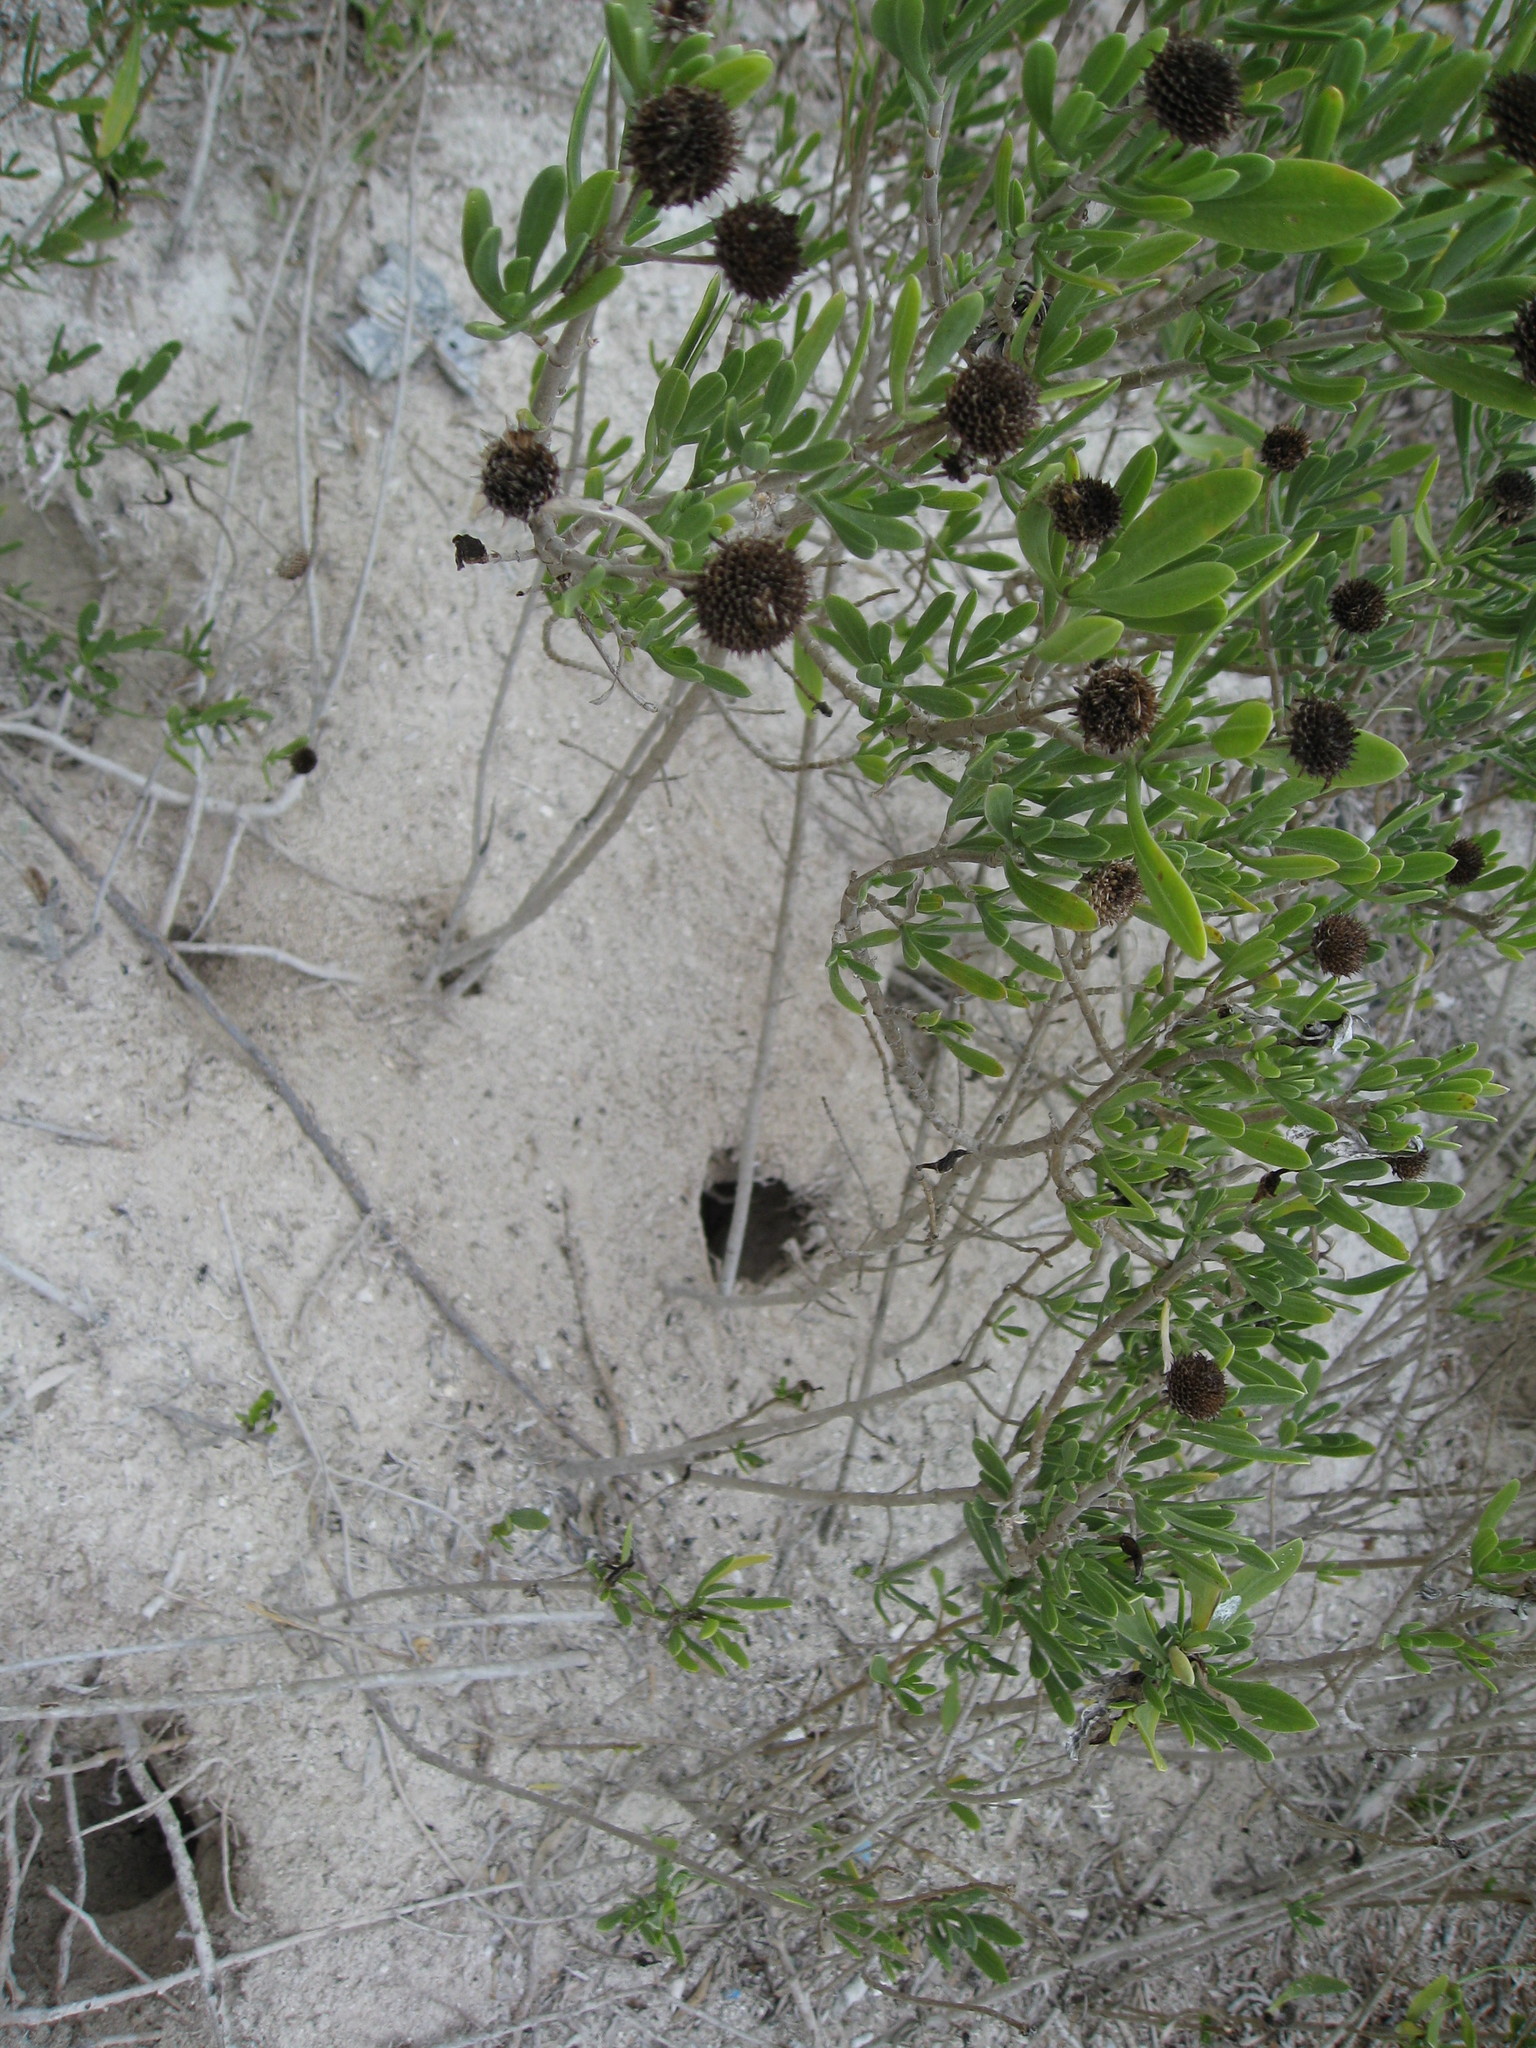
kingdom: Plantae
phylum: Tracheophyta
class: Magnoliopsida
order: Asterales
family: Asteraceae
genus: Borrichia
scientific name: Borrichia frutescens
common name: Sea oxeye
